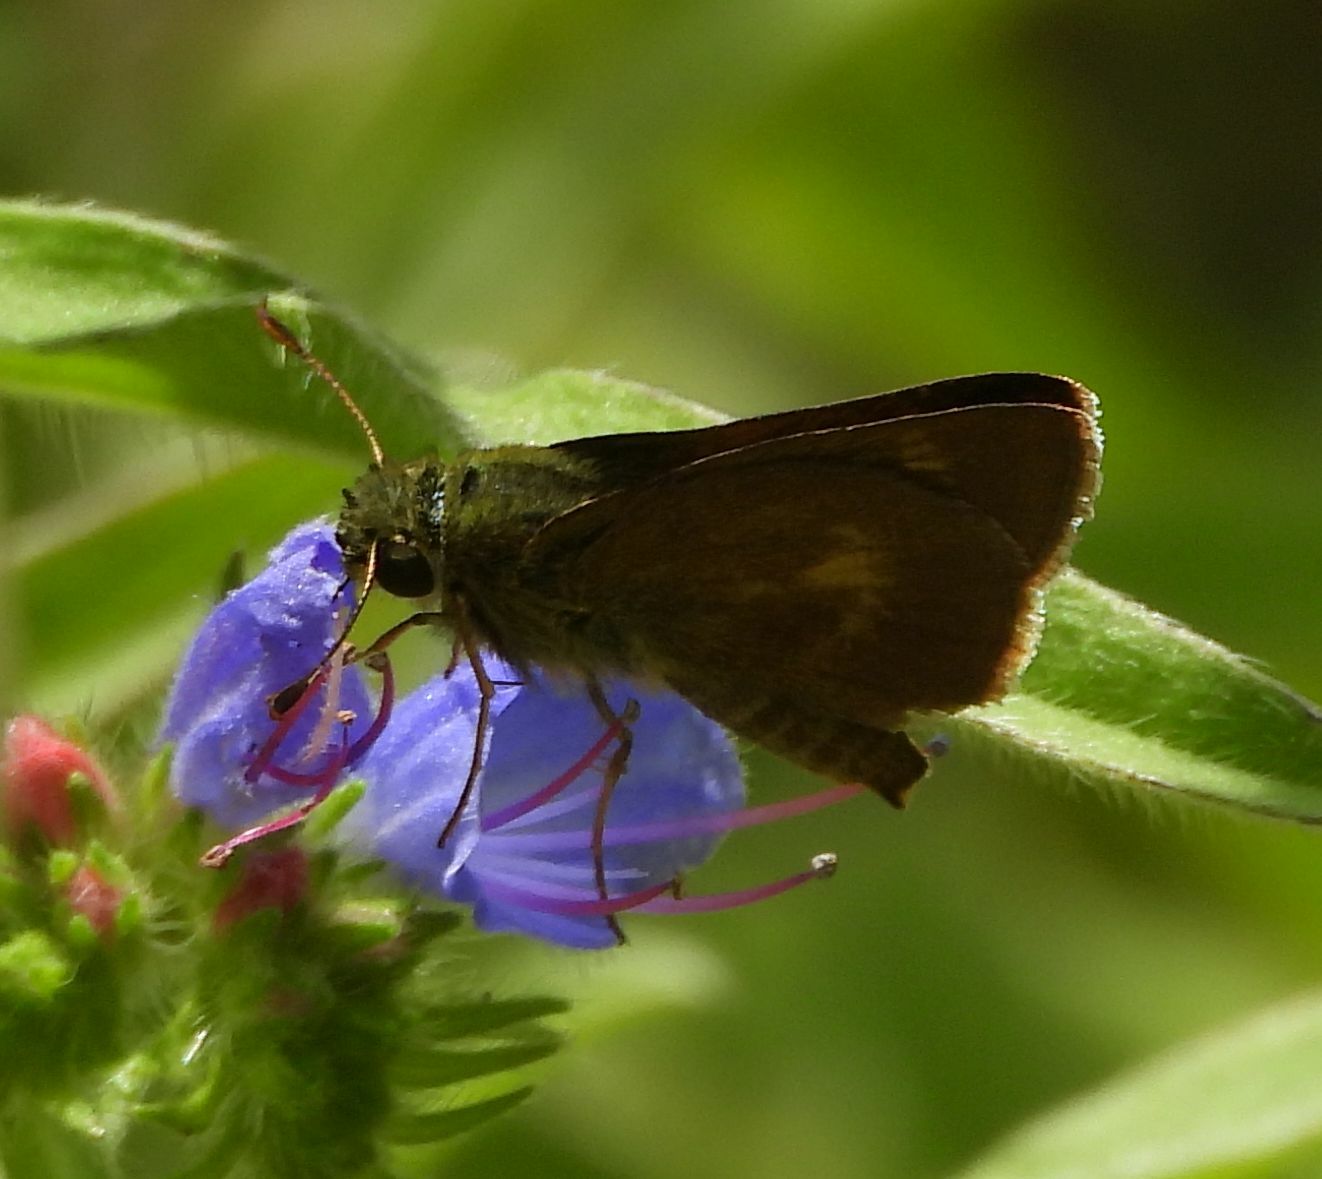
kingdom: Animalia
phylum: Arthropoda
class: Insecta
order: Lepidoptera
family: Hesperiidae
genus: Polites
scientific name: Polites egeremet
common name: Northern broken-dash
